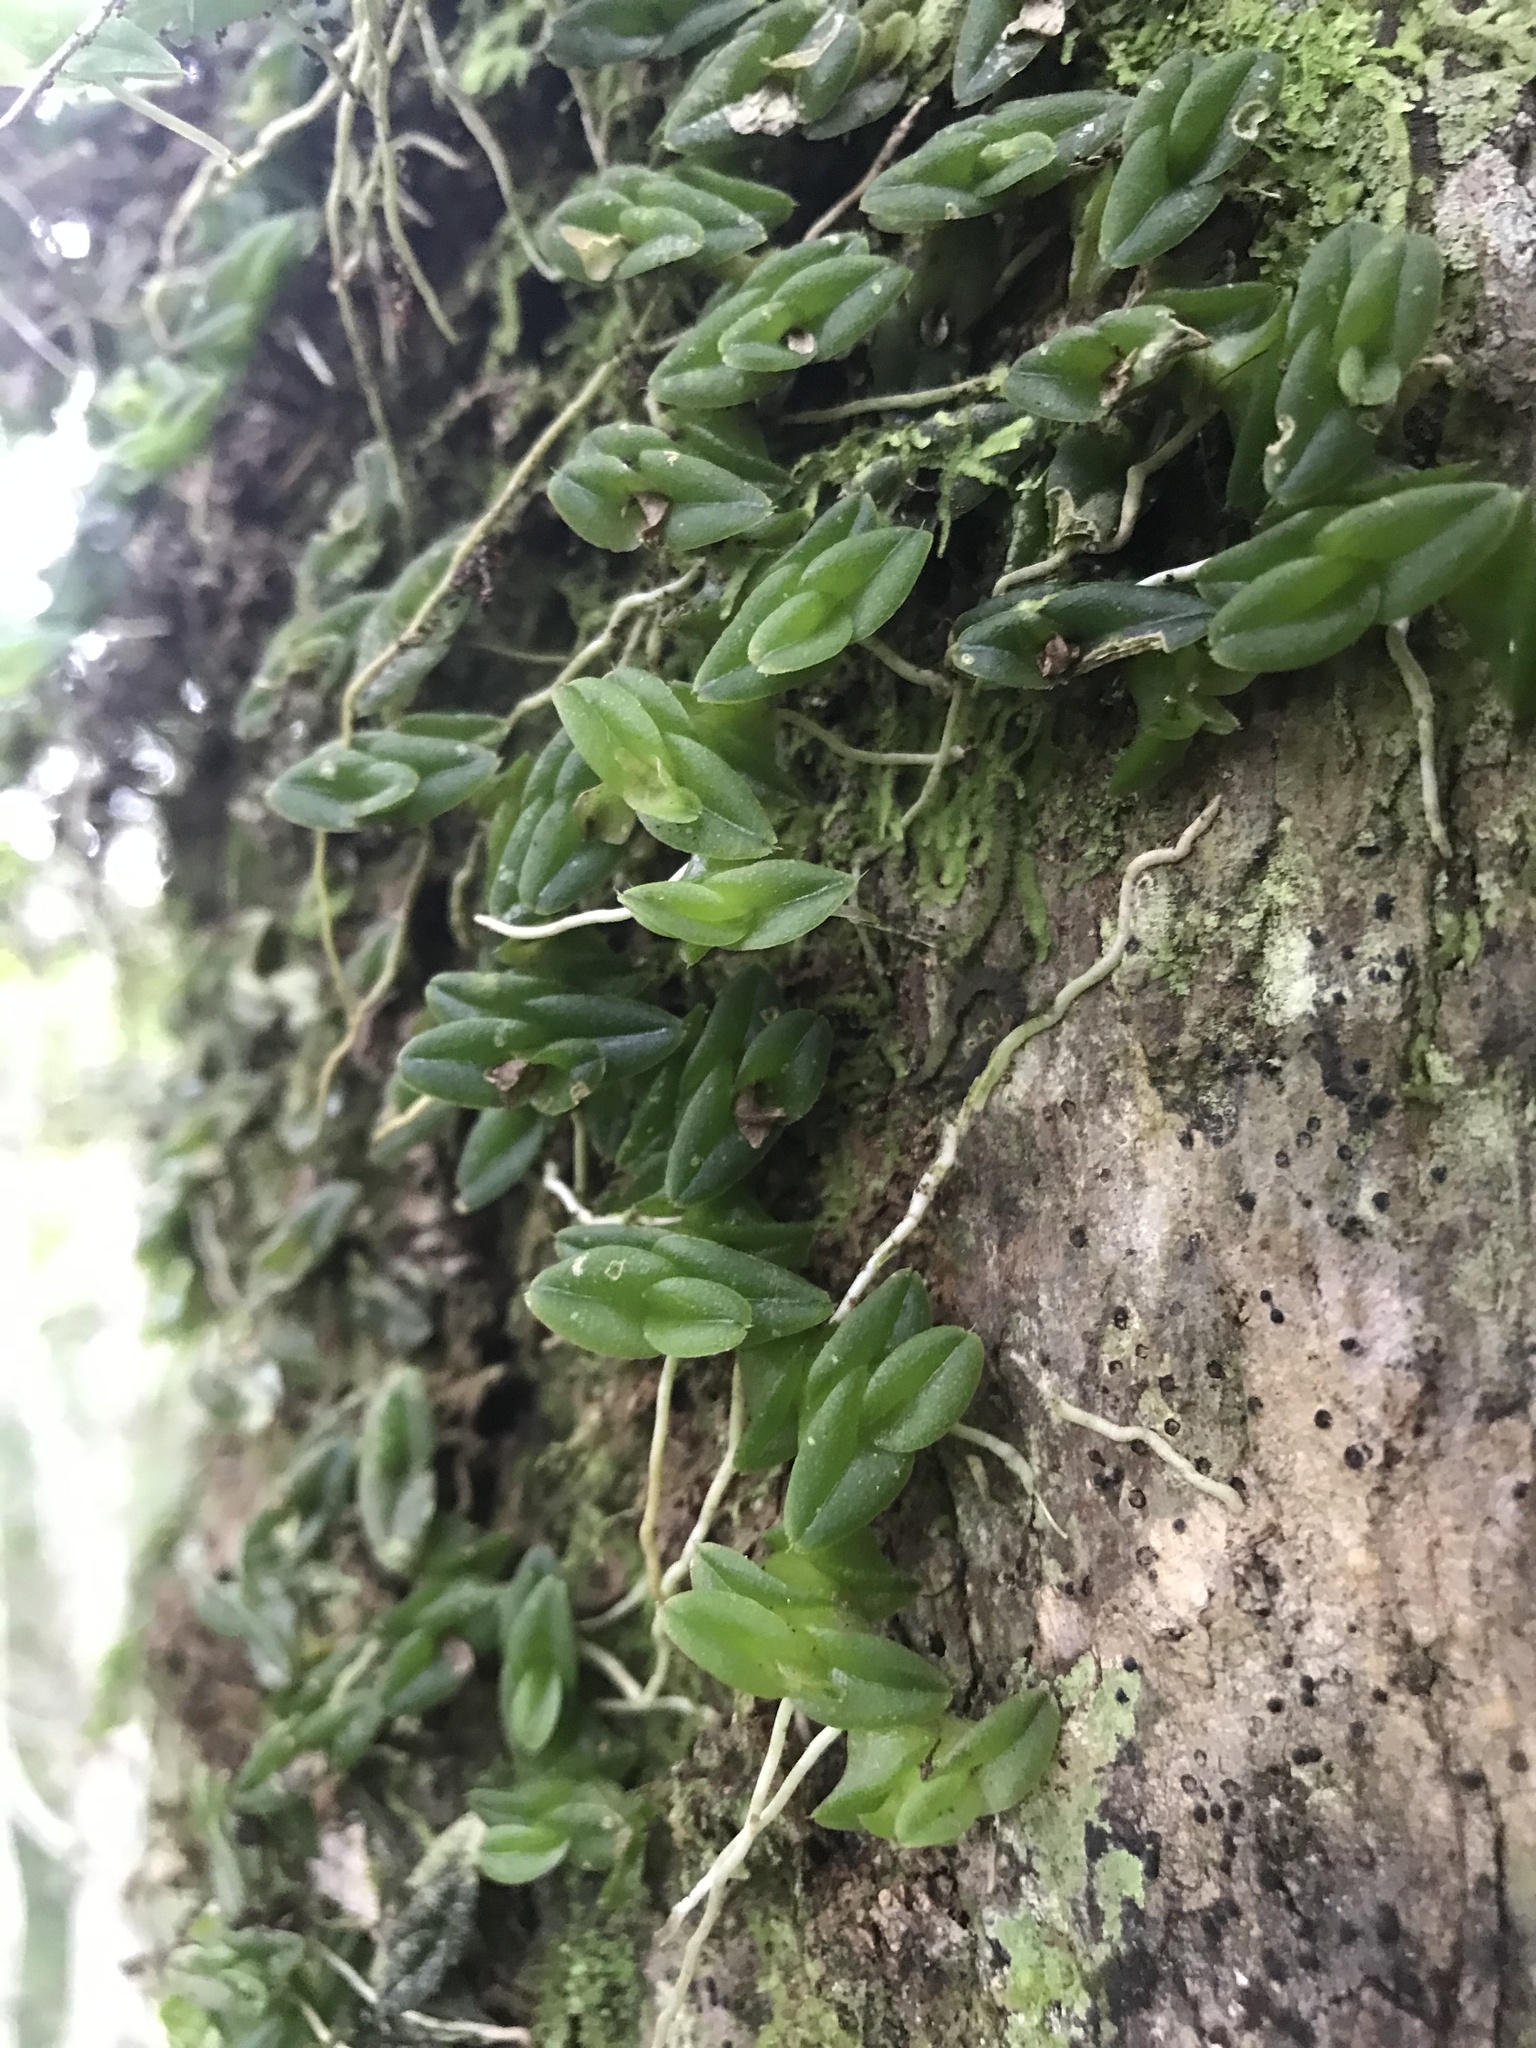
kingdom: Plantae
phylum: Tracheophyta
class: Liliopsida
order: Asparagales
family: Orchidaceae
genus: Epidendrum
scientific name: Epidendrum longirepens
